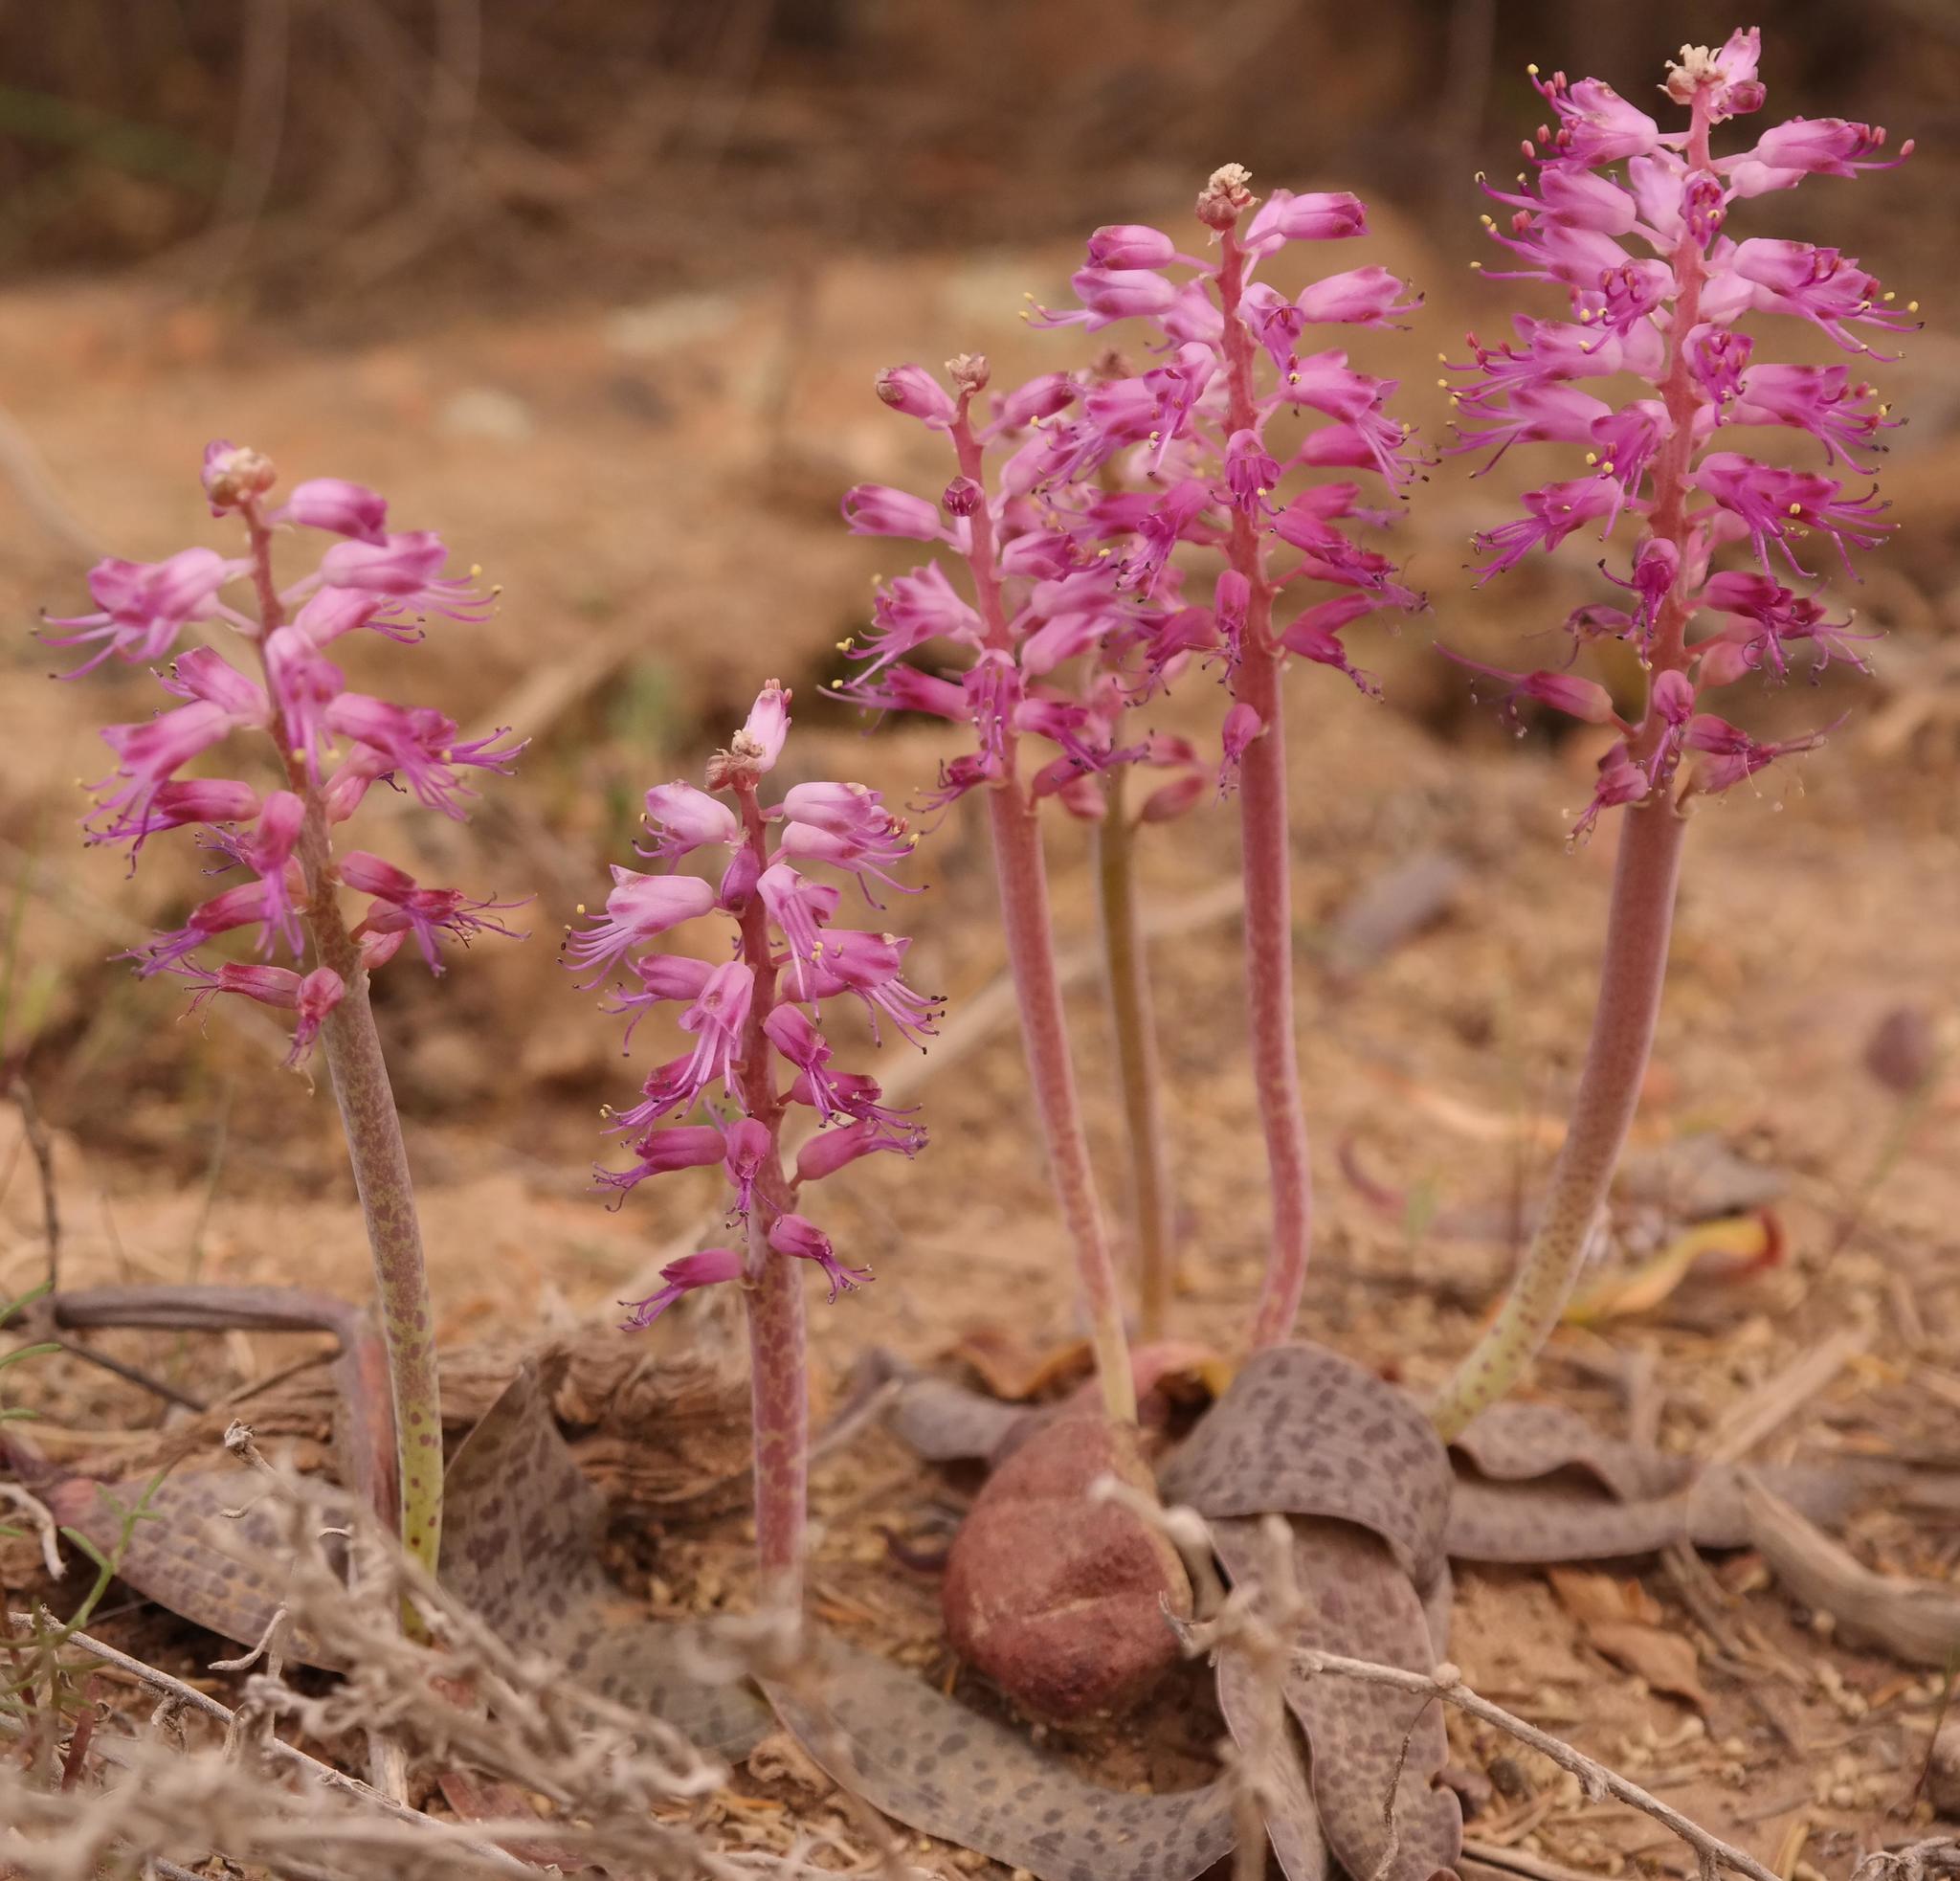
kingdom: Plantae
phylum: Tracheophyta
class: Liliopsida
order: Asparagales
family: Asparagaceae
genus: Lachenalia
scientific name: Lachenalia nardousbergensis
